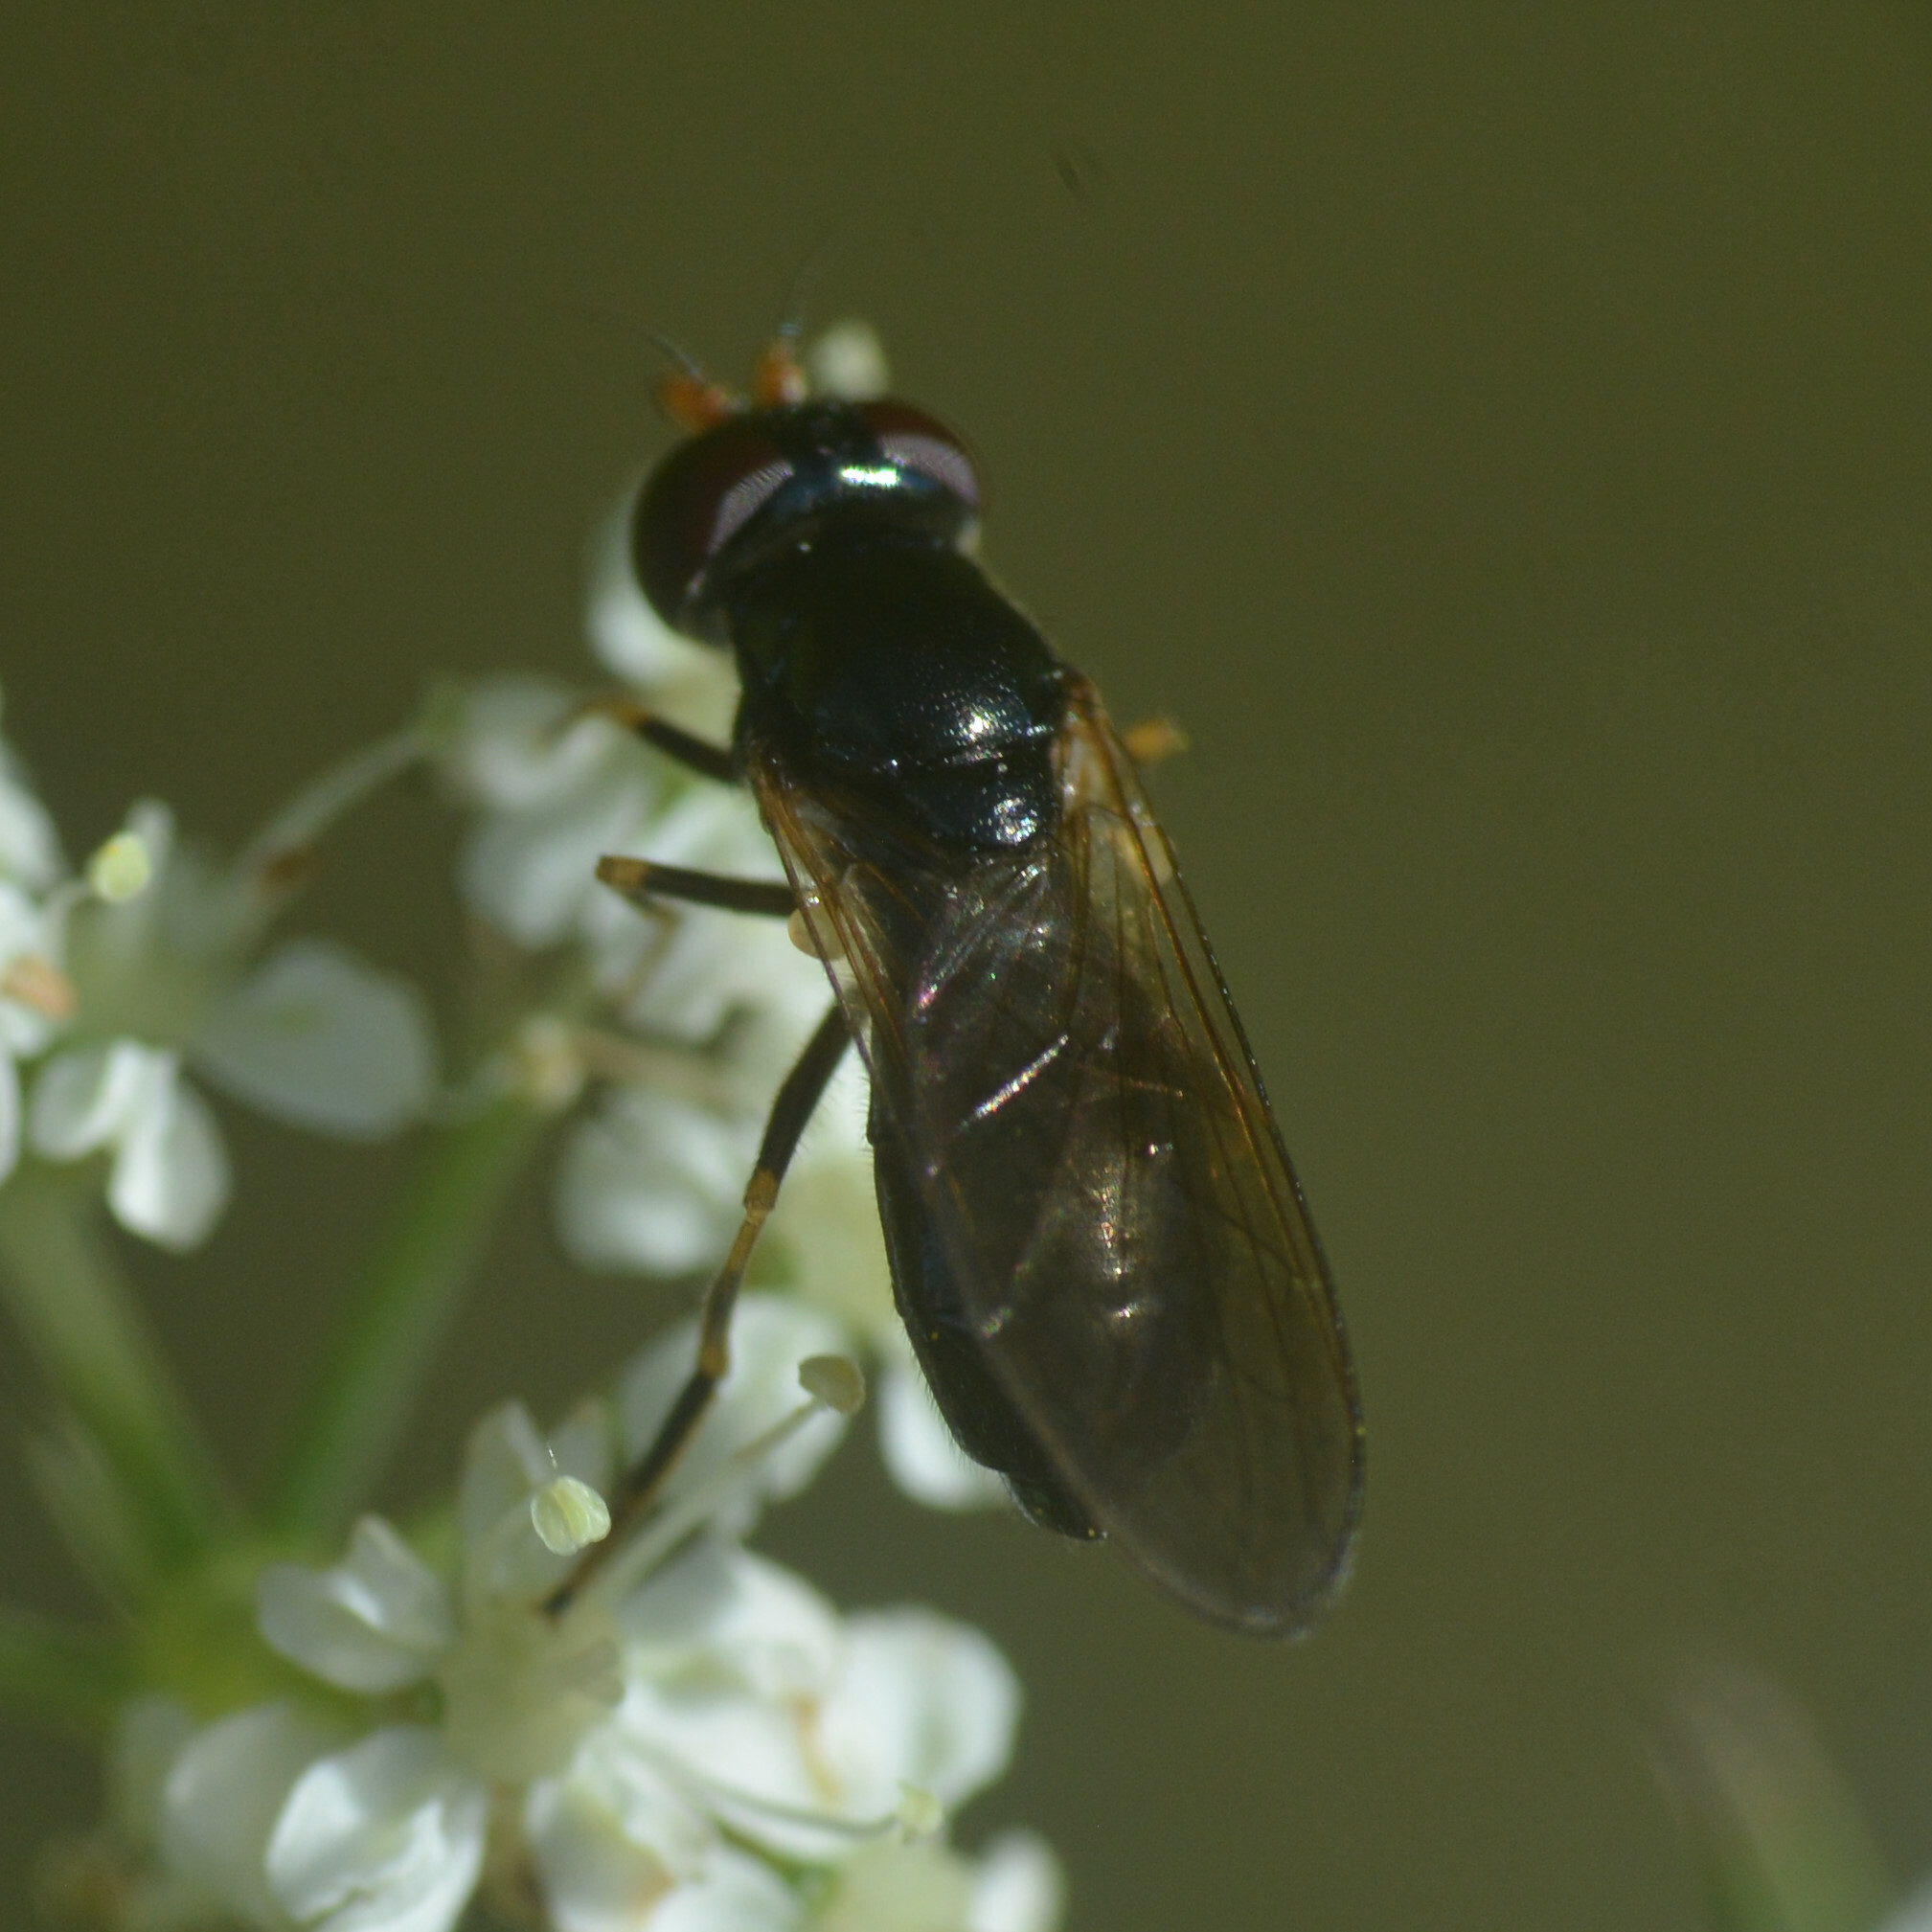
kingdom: Animalia
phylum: Arthropoda
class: Insecta
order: Diptera
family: Syrphidae
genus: Cheilosia
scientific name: Cheilosia pagana
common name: Hover fly
